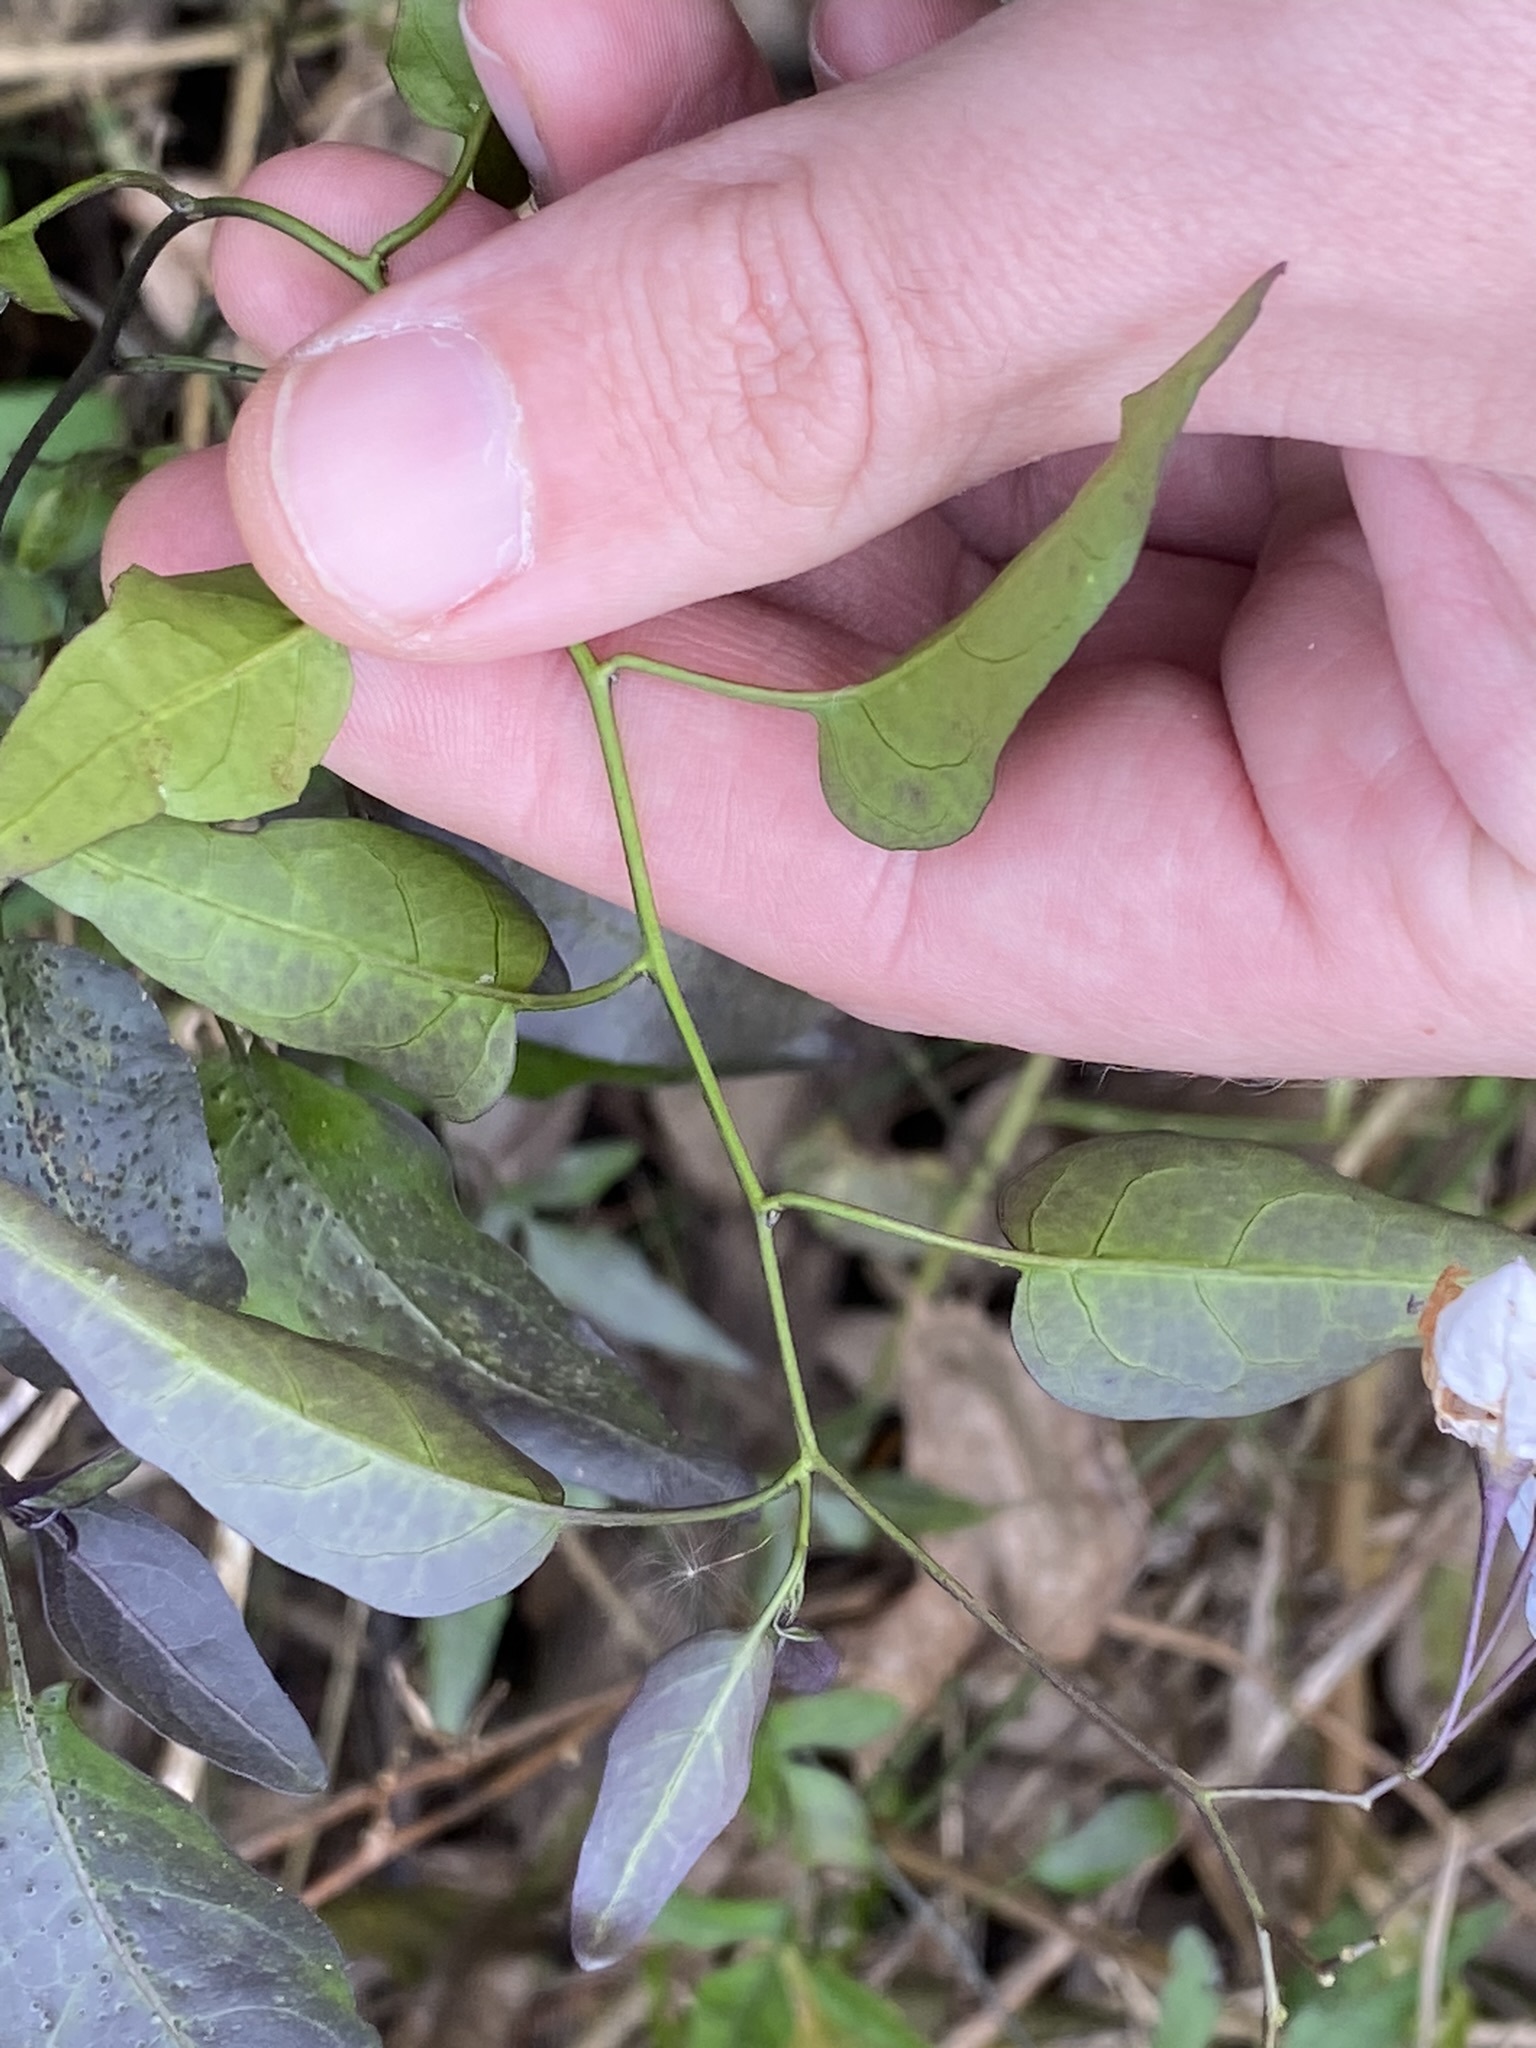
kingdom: Plantae
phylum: Tracheophyta
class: Magnoliopsida
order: Solanales
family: Solanaceae
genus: Solanum
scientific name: Solanum laxum
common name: Nightshade
